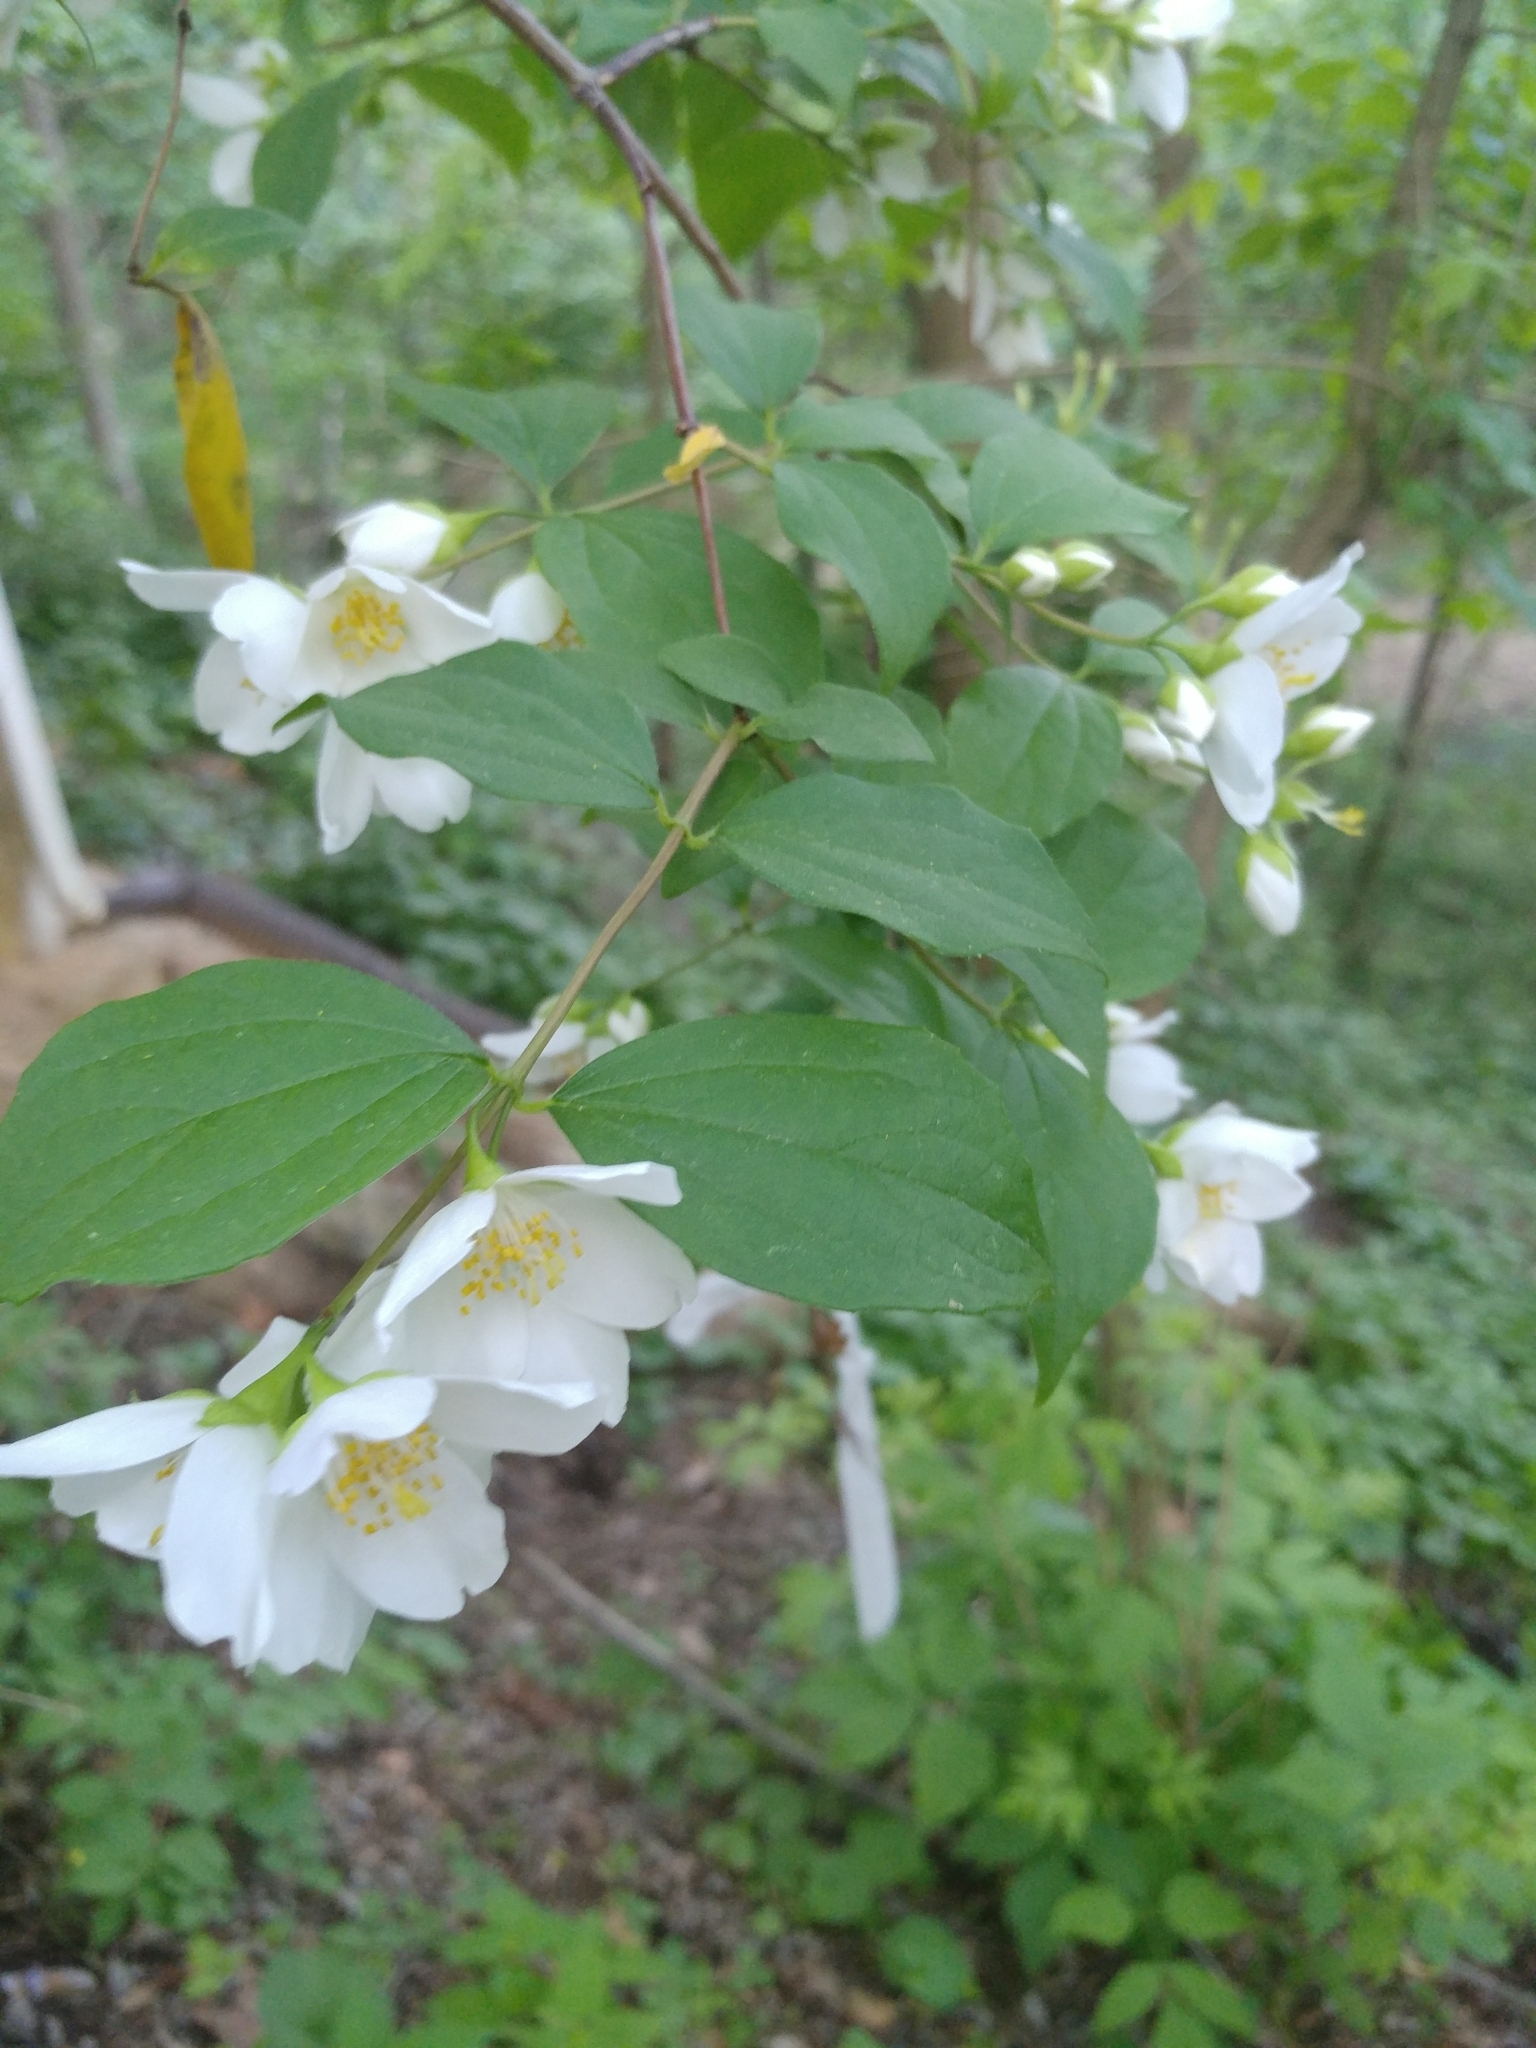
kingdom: Plantae
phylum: Tracheophyta
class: Magnoliopsida
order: Cornales
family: Hydrangeaceae
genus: Philadelphus
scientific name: Philadelphus coronarius
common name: Mock orange
